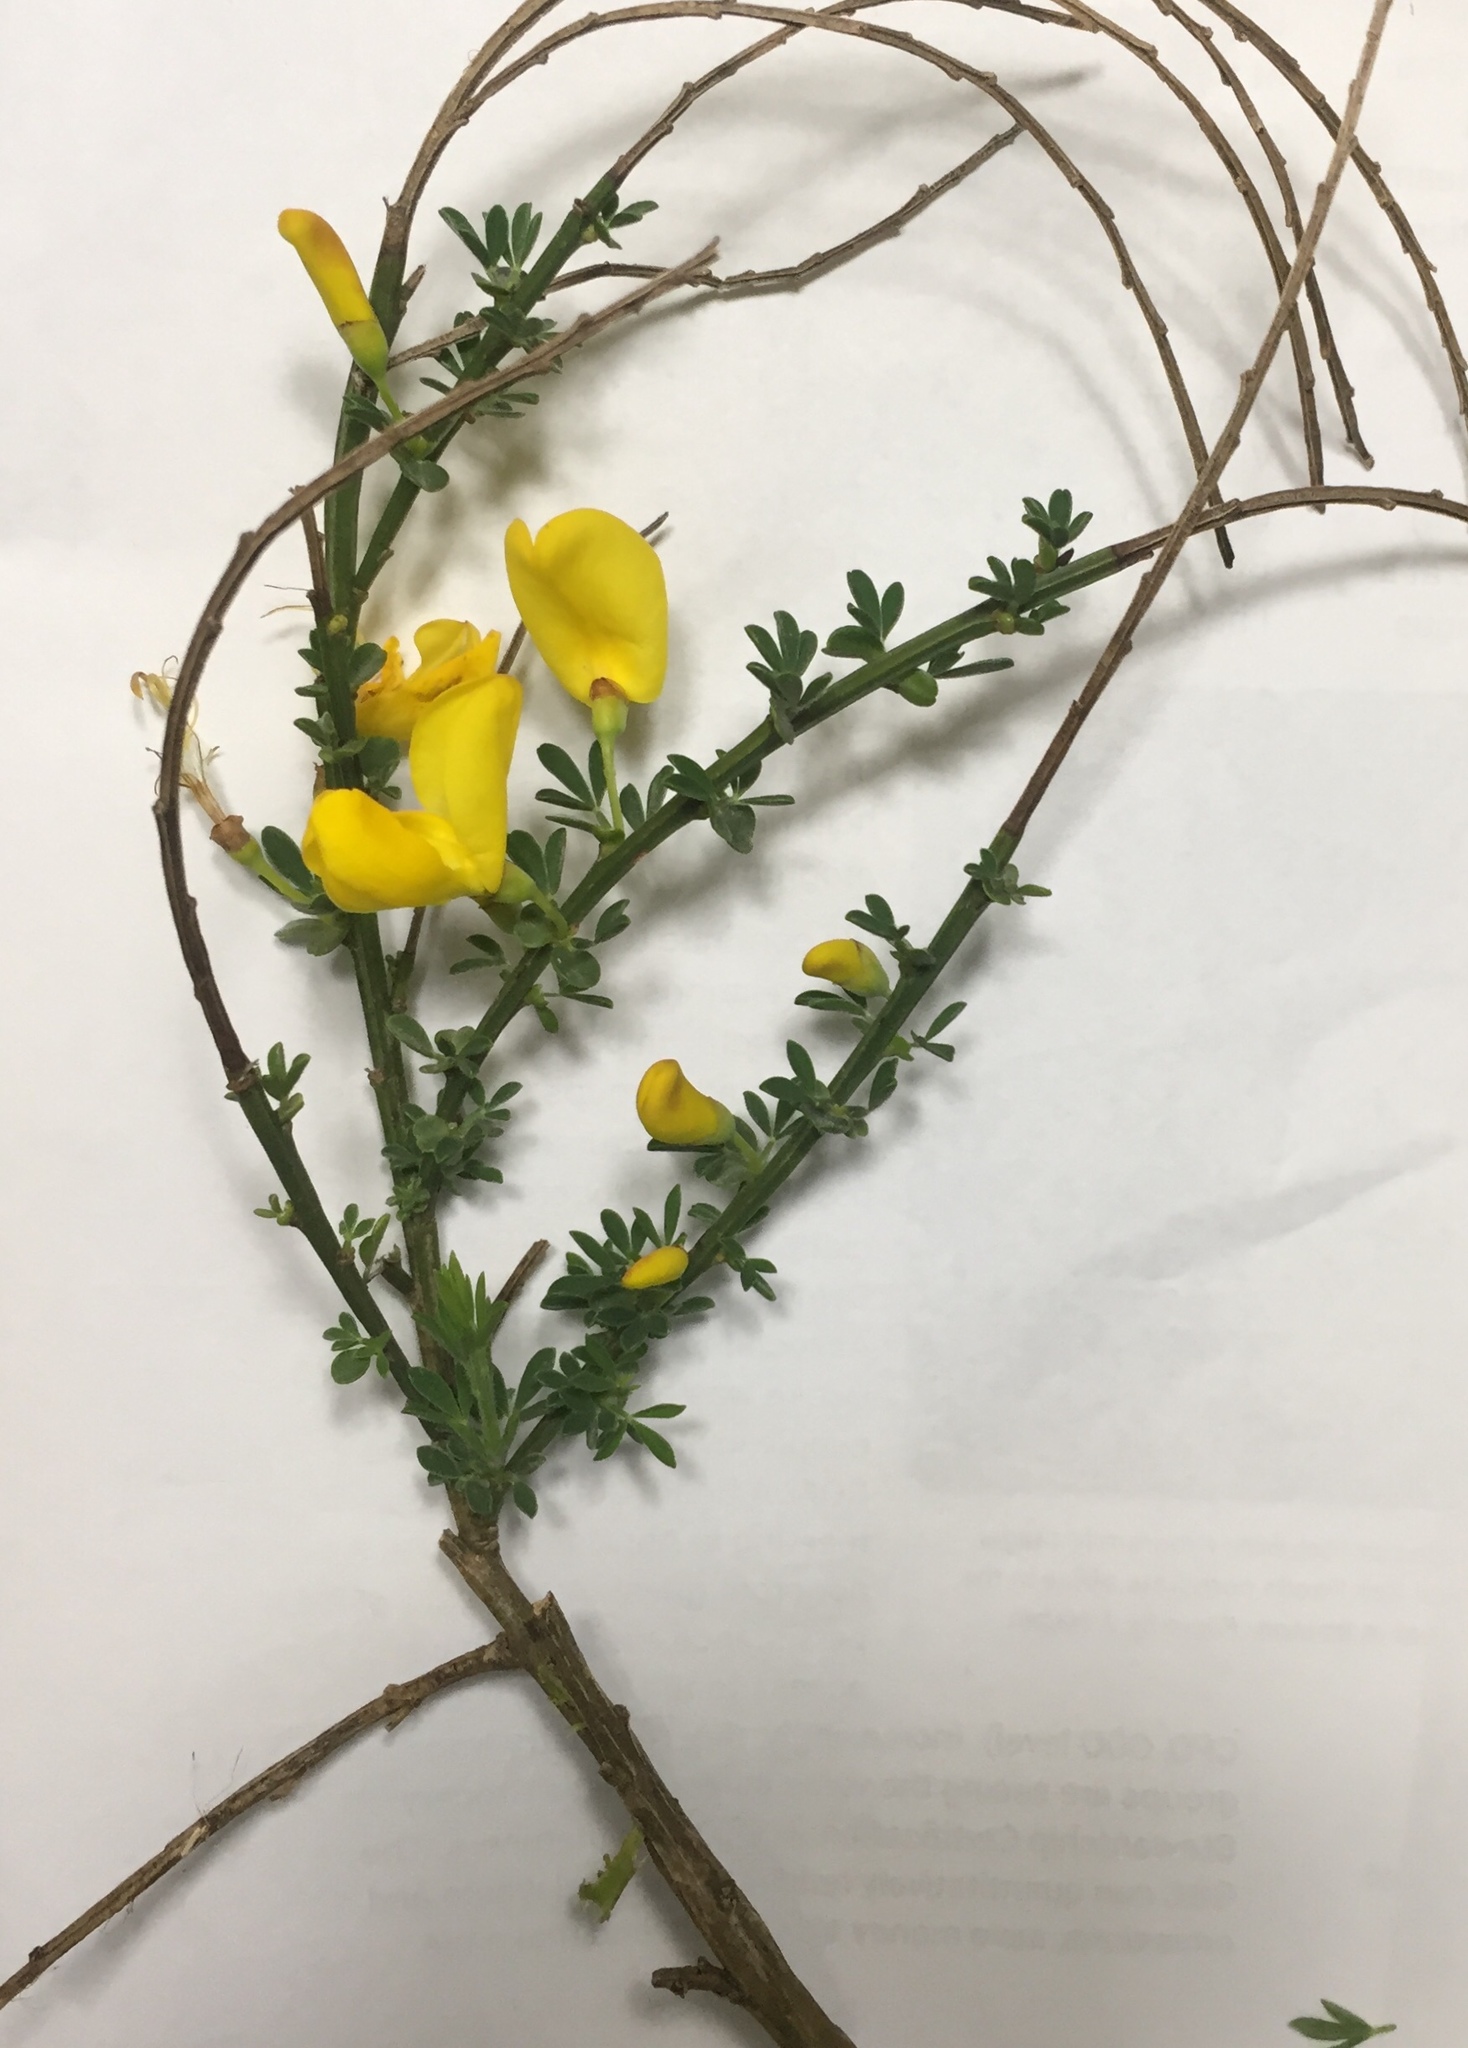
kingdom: Plantae
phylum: Tracheophyta
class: Magnoliopsida
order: Fabales
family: Fabaceae
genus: Cytisus
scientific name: Cytisus scoparius
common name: Scotch broom
